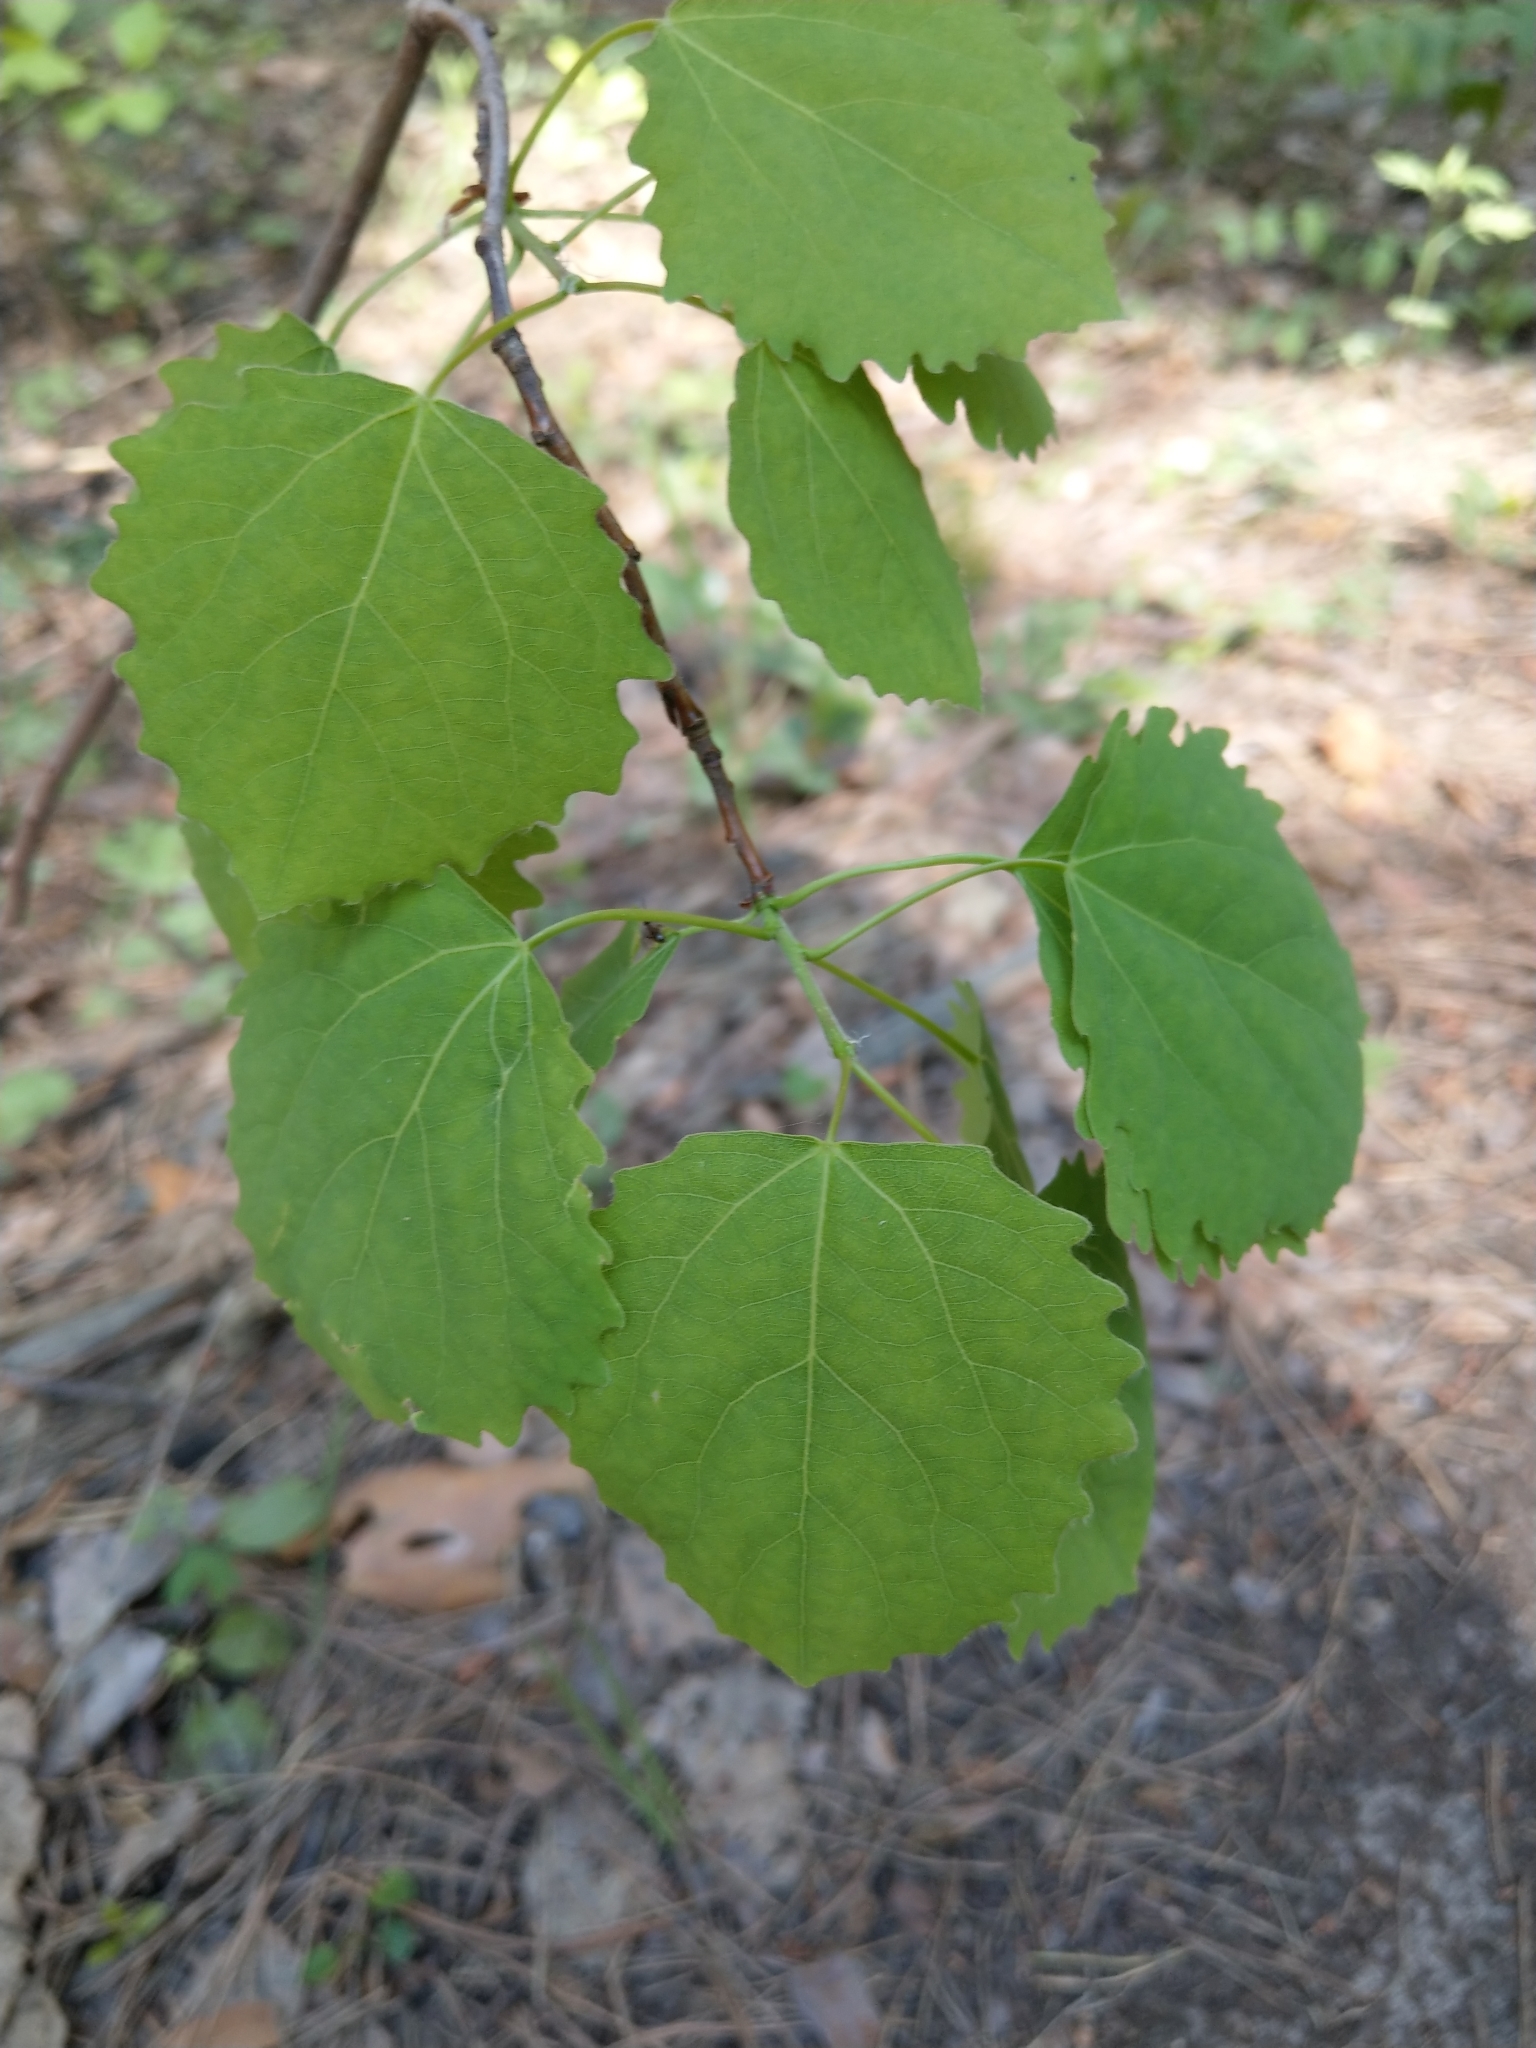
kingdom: Plantae
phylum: Tracheophyta
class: Magnoliopsida
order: Malpighiales
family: Salicaceae
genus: Populus
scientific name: Populus tremula
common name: European aspen
